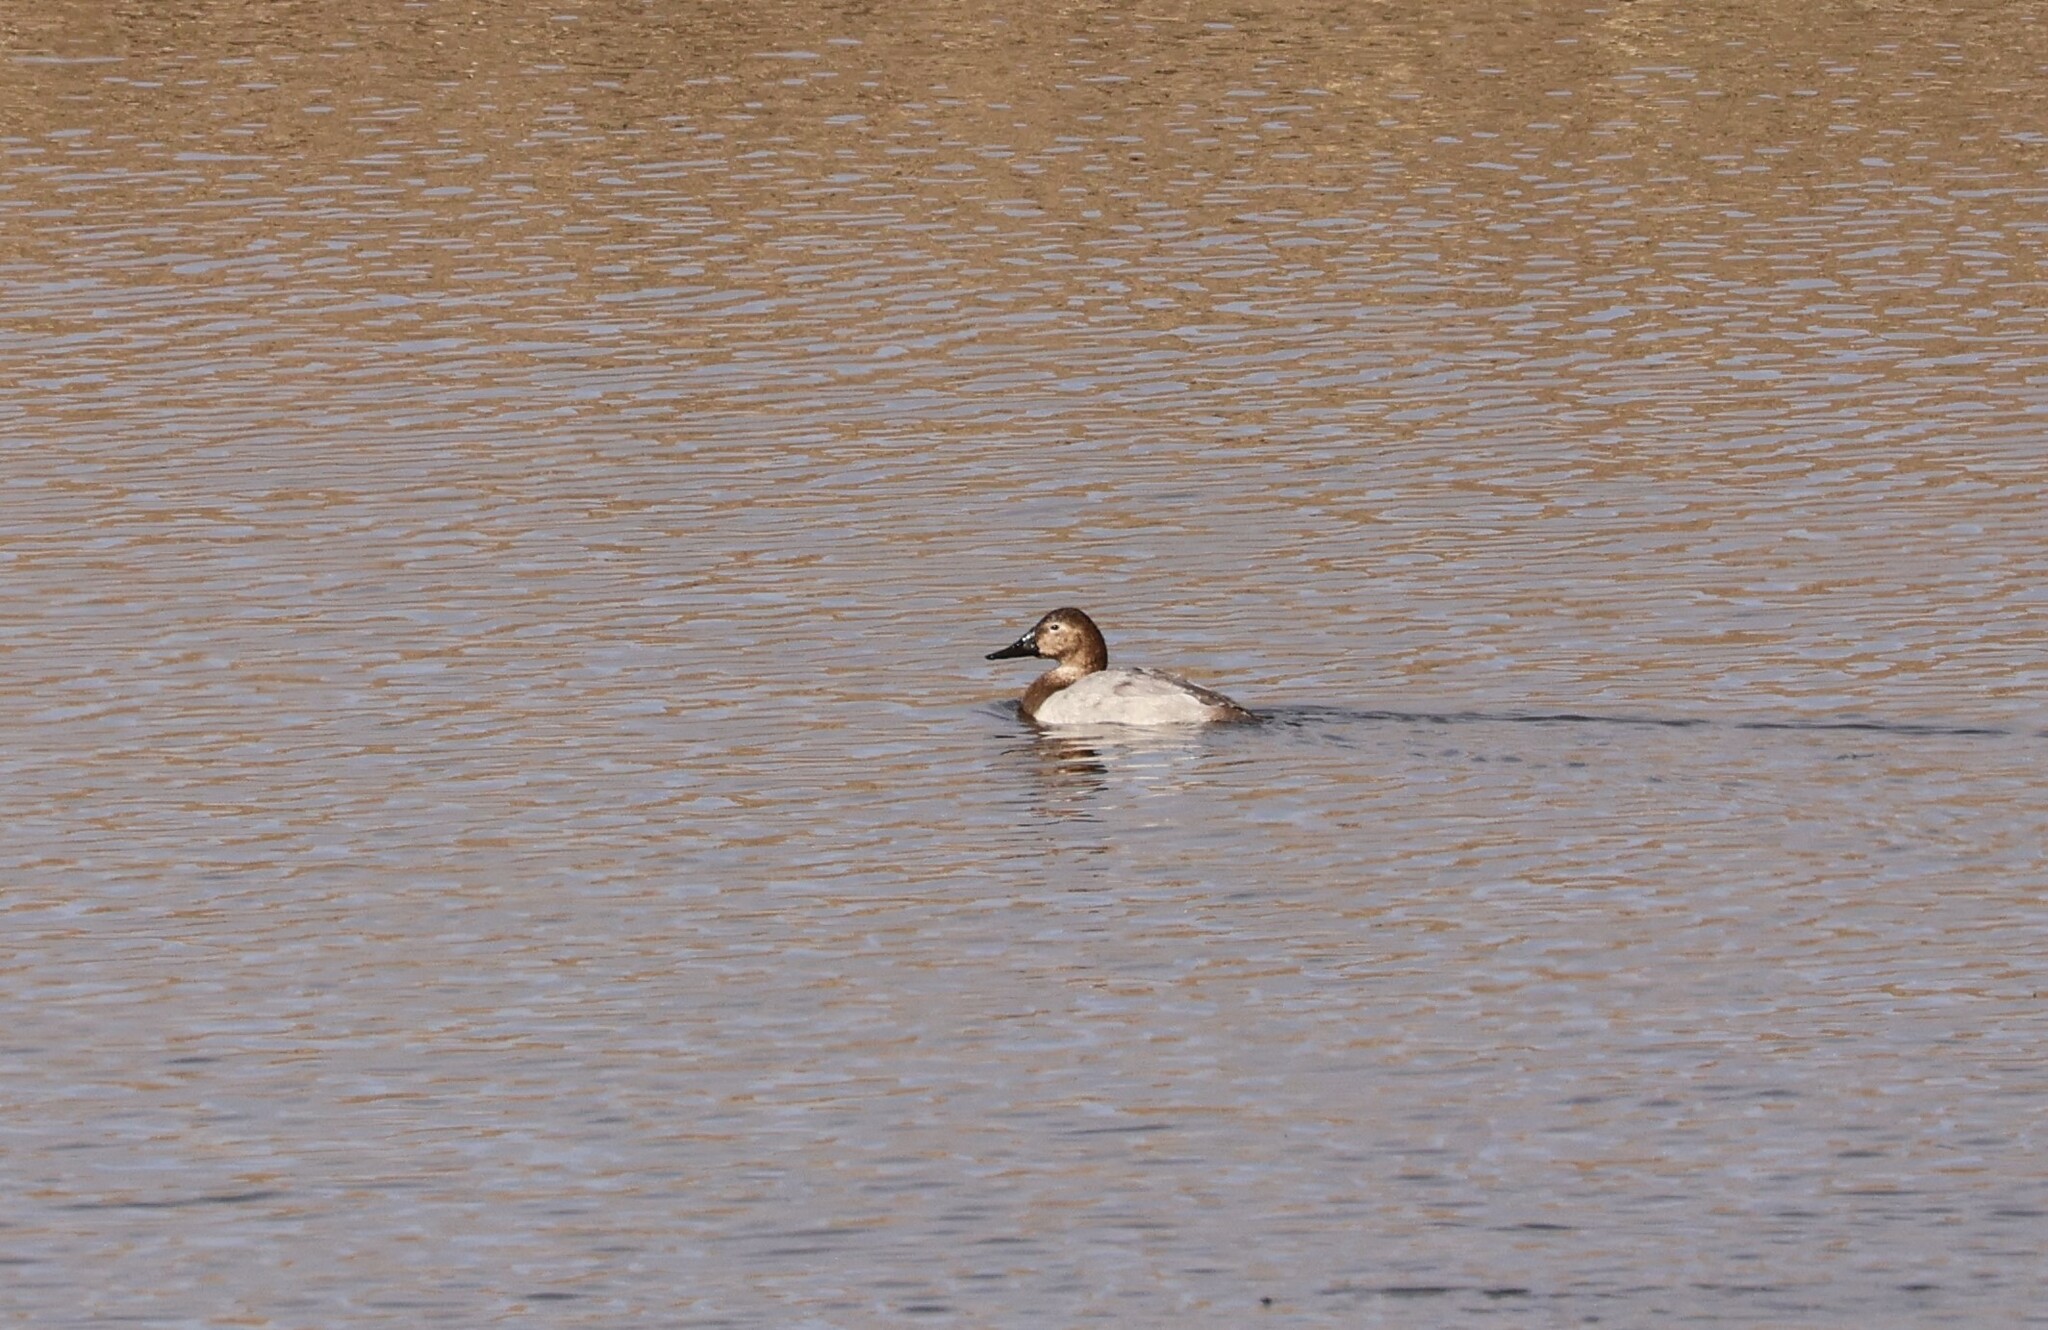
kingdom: Animalia
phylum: Chordata
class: Aves
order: Anseriformes
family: Anatidae
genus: Aythya
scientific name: Aythya valisineria
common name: Canvasback
